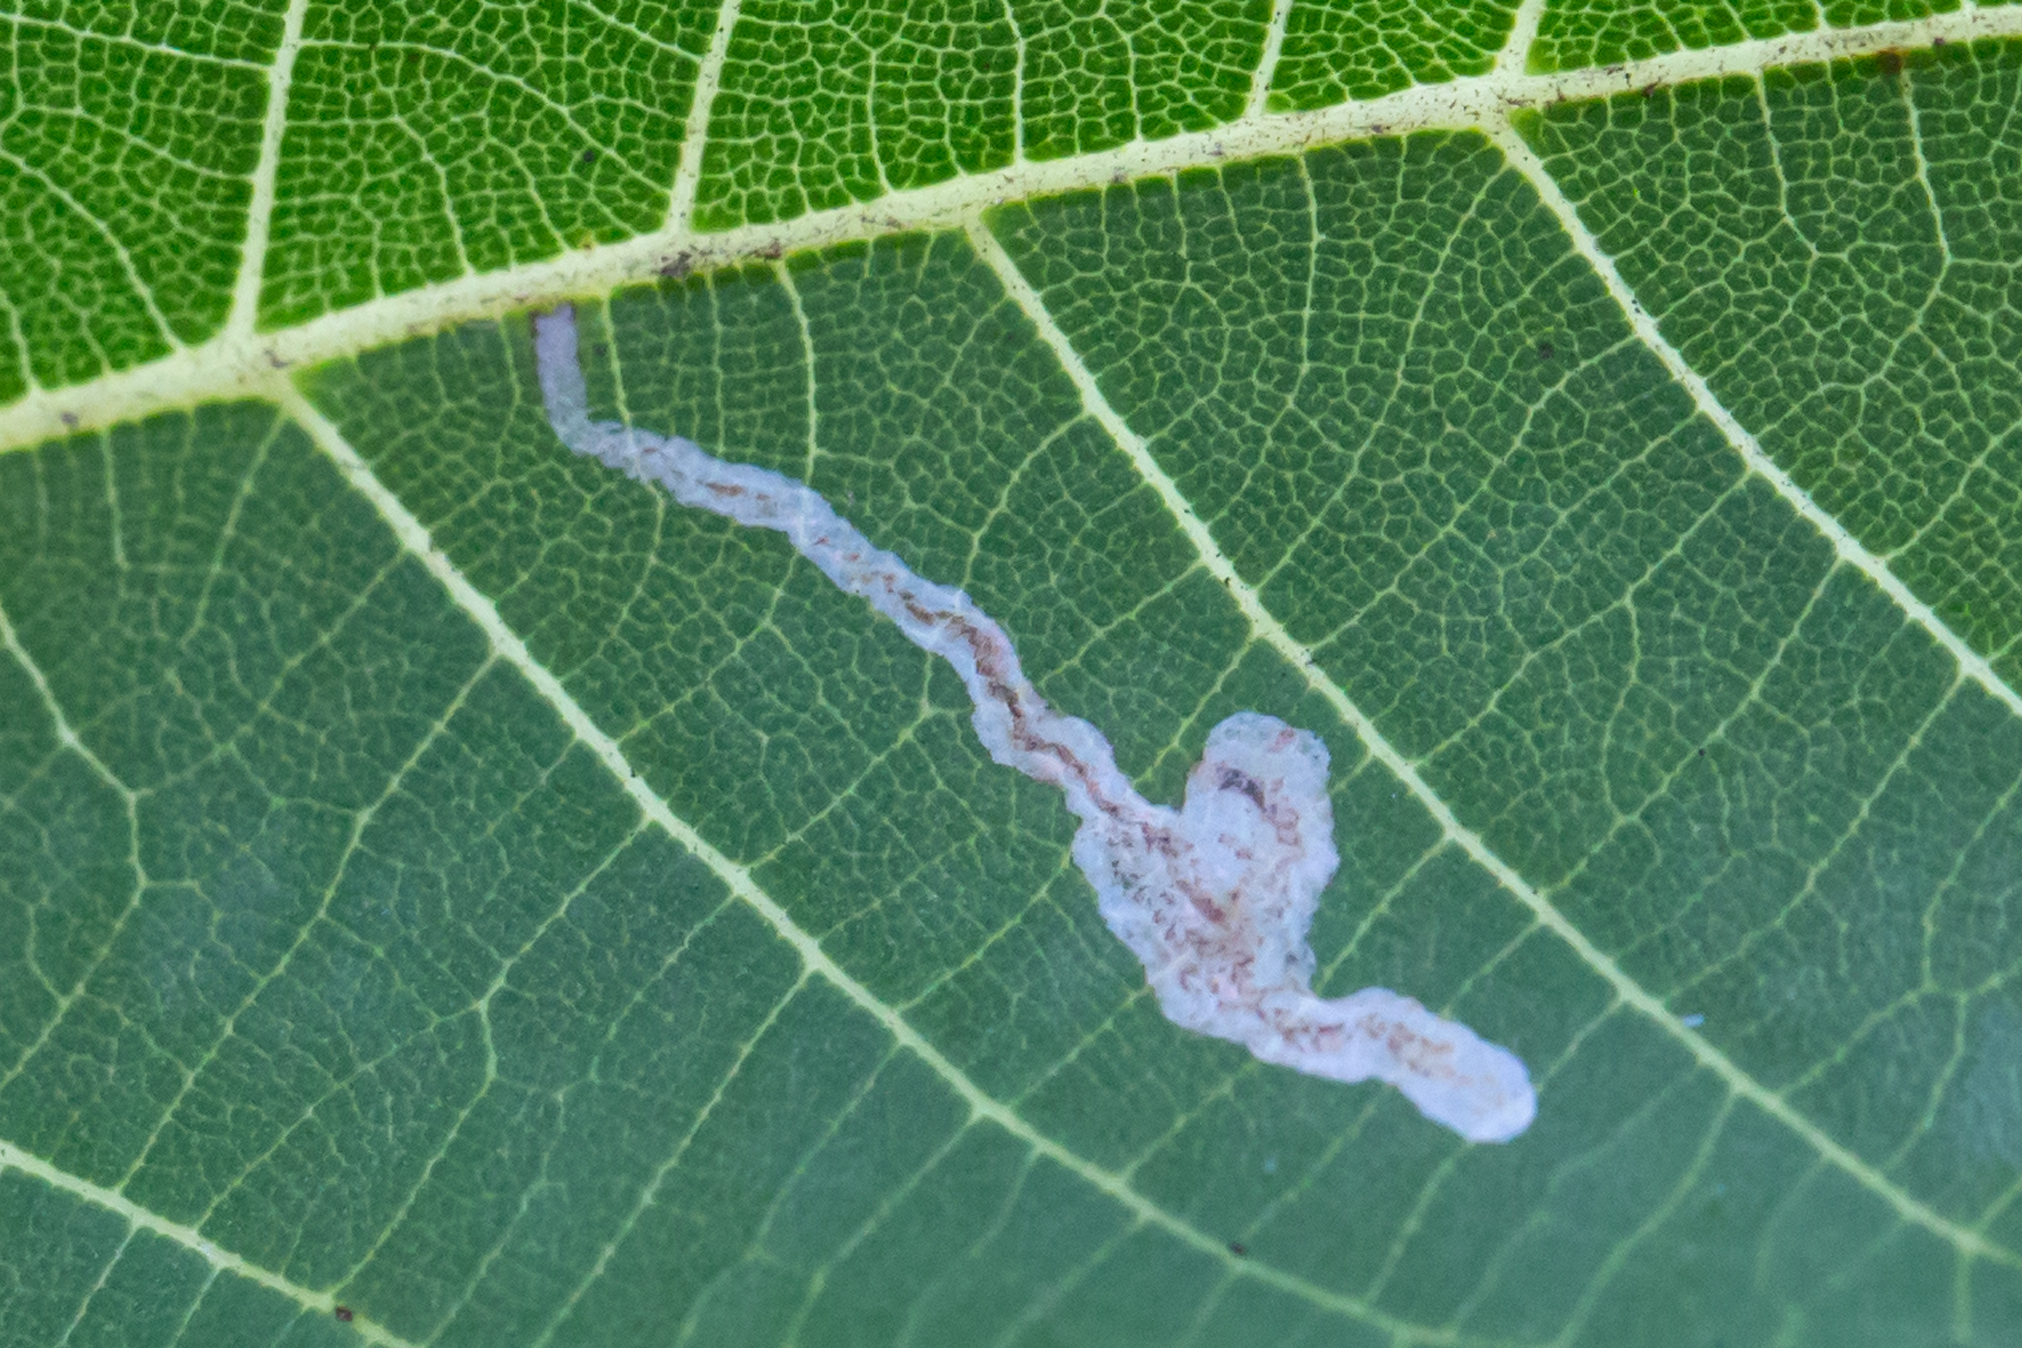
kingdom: Animalia
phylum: Arthropoda
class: Insecta
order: Lepidoptera
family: Nepticulidae
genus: Stigmella
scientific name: Stigmella juglandifoliella
